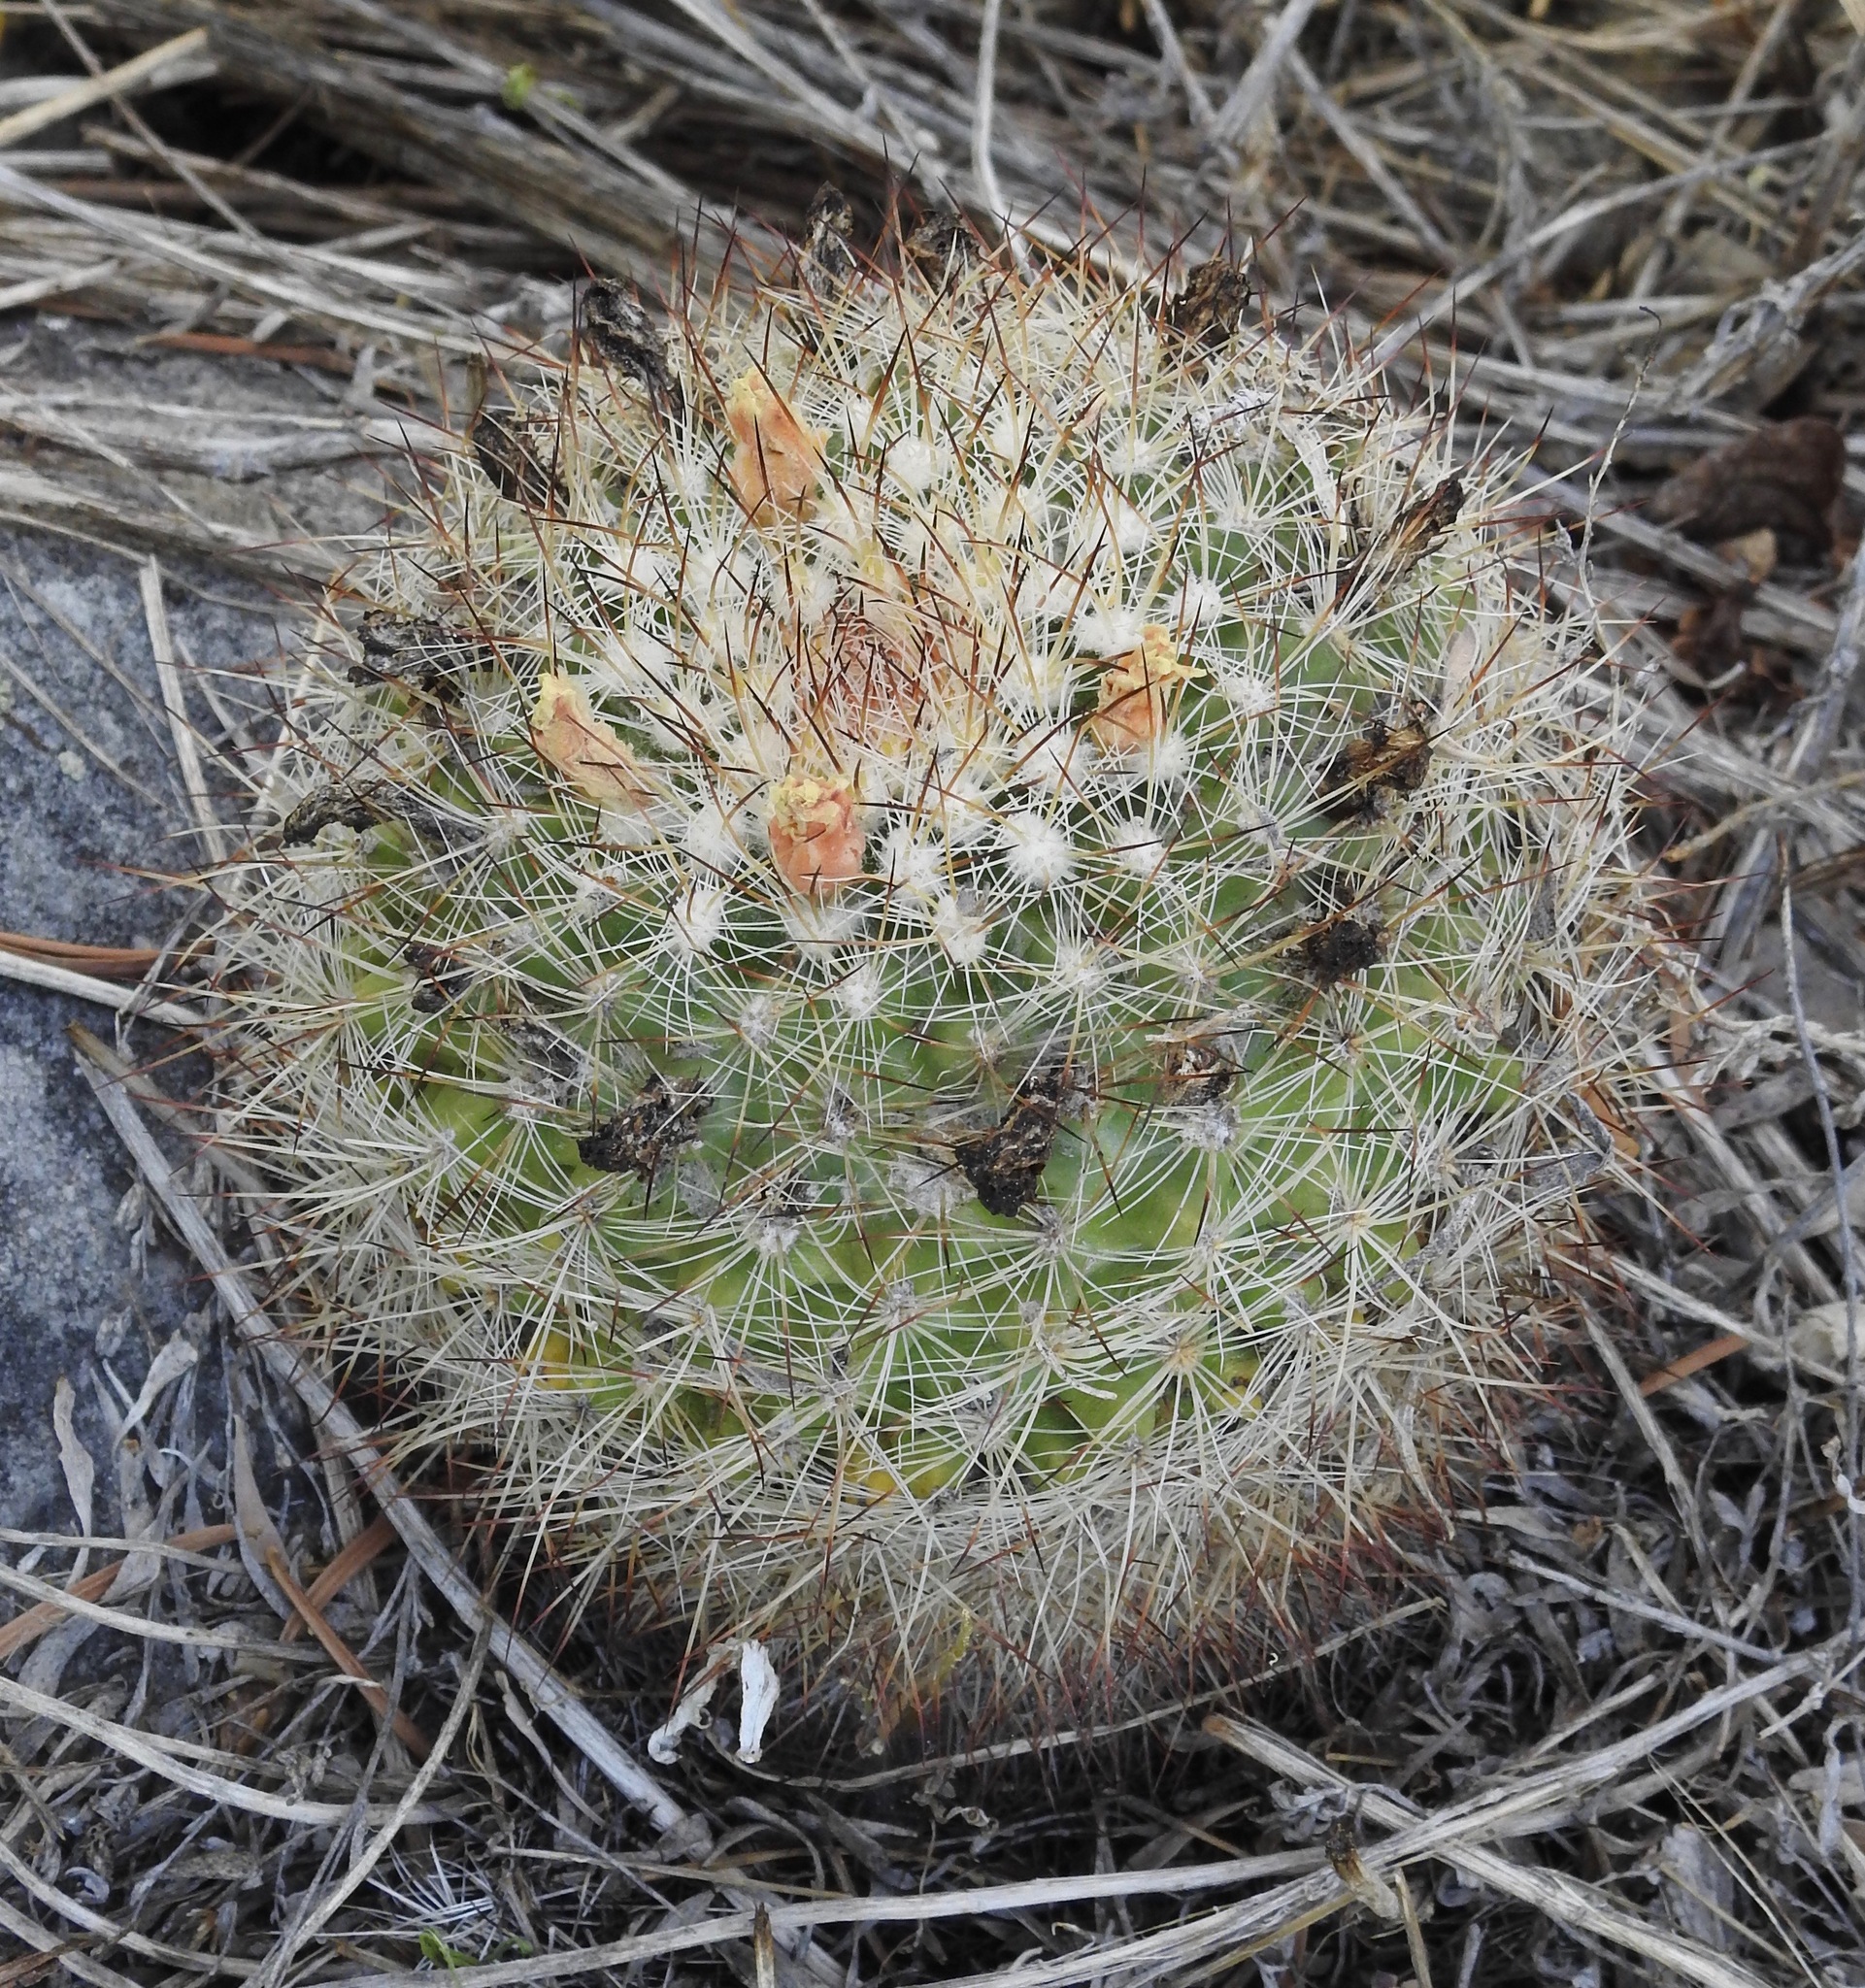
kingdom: Plantae
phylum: Tracheophyta
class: Magnoliopsida
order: Caryophyllales
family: Cactaceae
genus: Pediocactus
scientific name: Pediocactus simpsonii
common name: Simpson's hedgehog cactus
